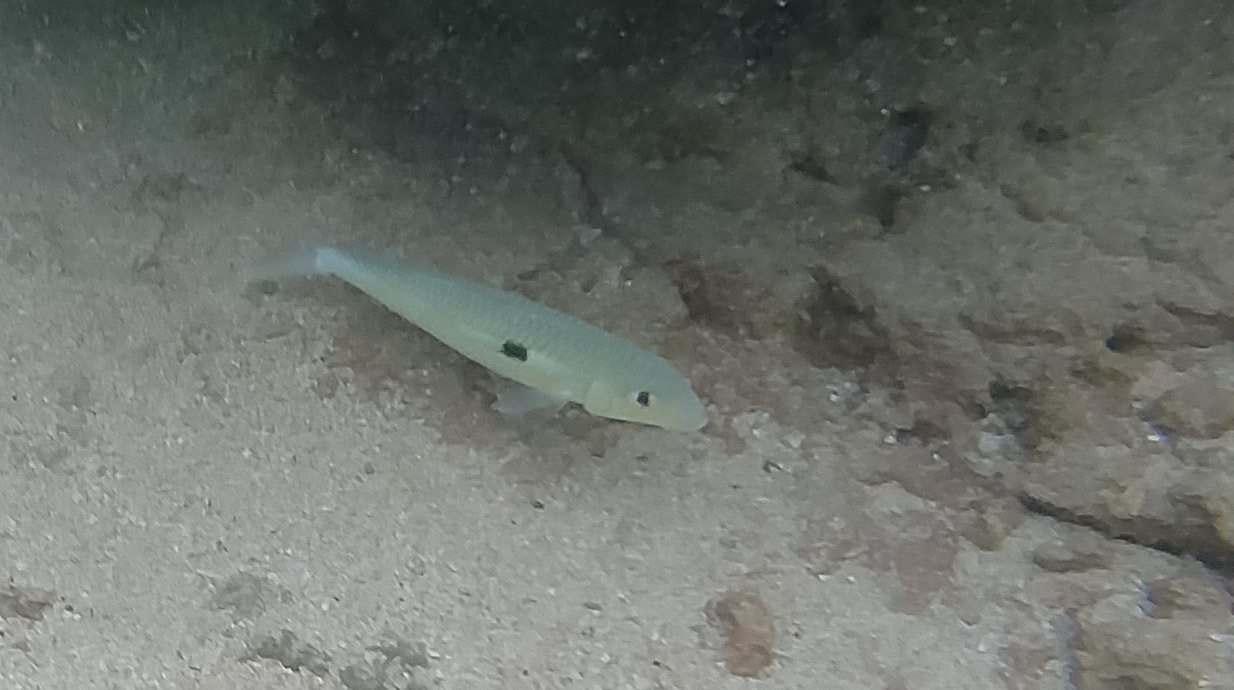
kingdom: Animalia
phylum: Chordata
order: Perciformes
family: Mullidae
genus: Mulloidichthys
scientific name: Mulloidichthys flavolineatus
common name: Yellowstripe goatfish
